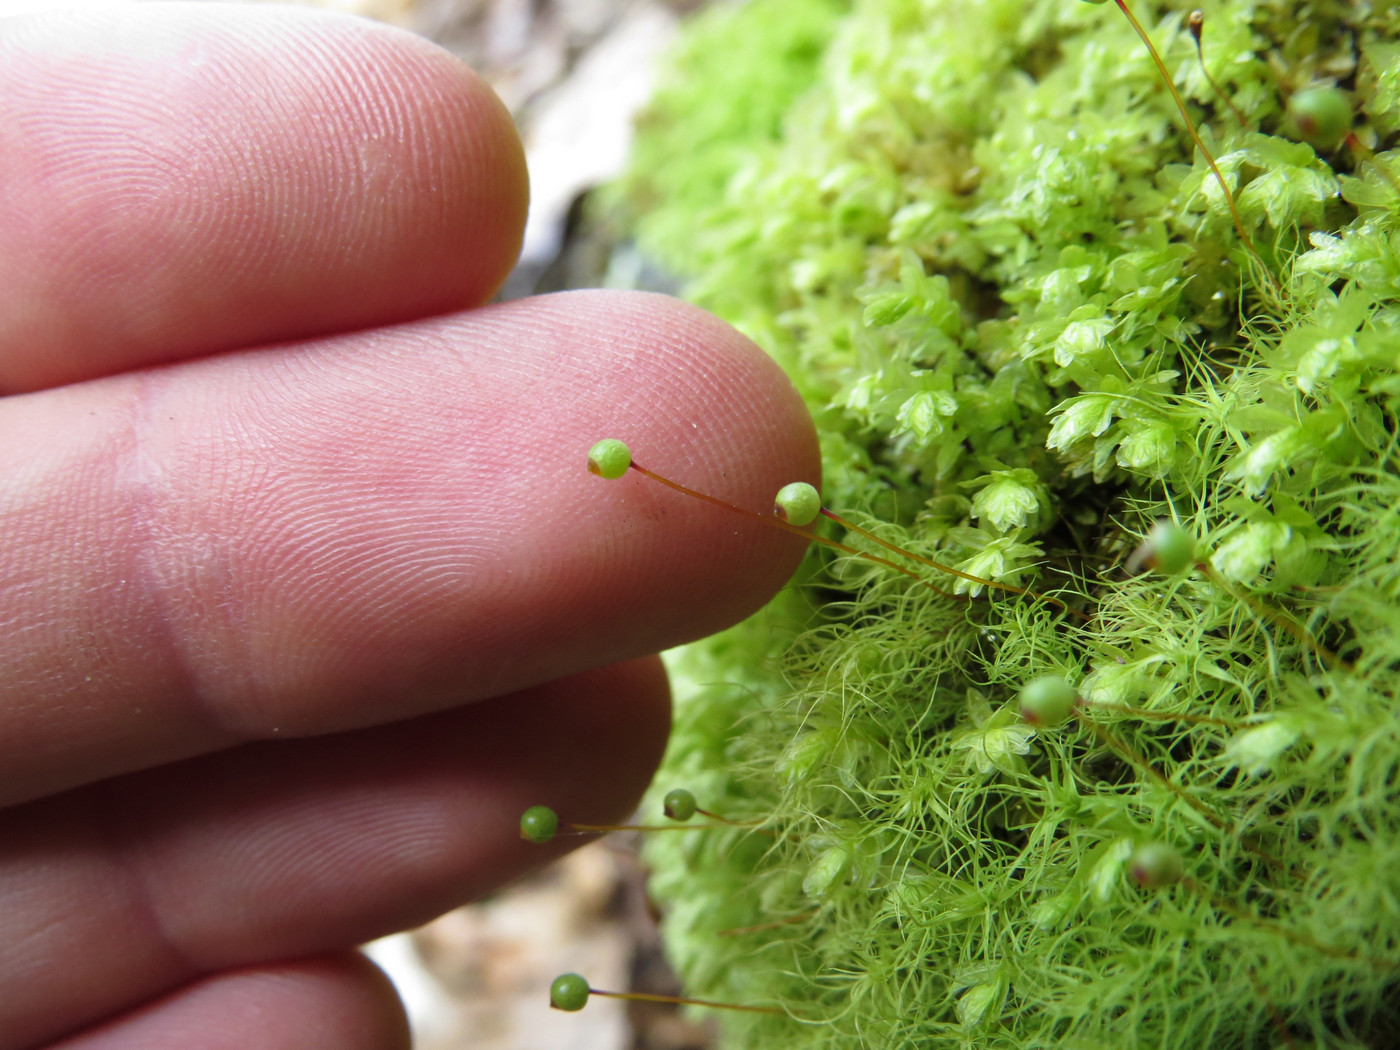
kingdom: Plantae
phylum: Bryophyta
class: Bryopsida
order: Bartramiales
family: Bartramiaceae
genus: Bartramia
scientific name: Bartramia ithyphylla
